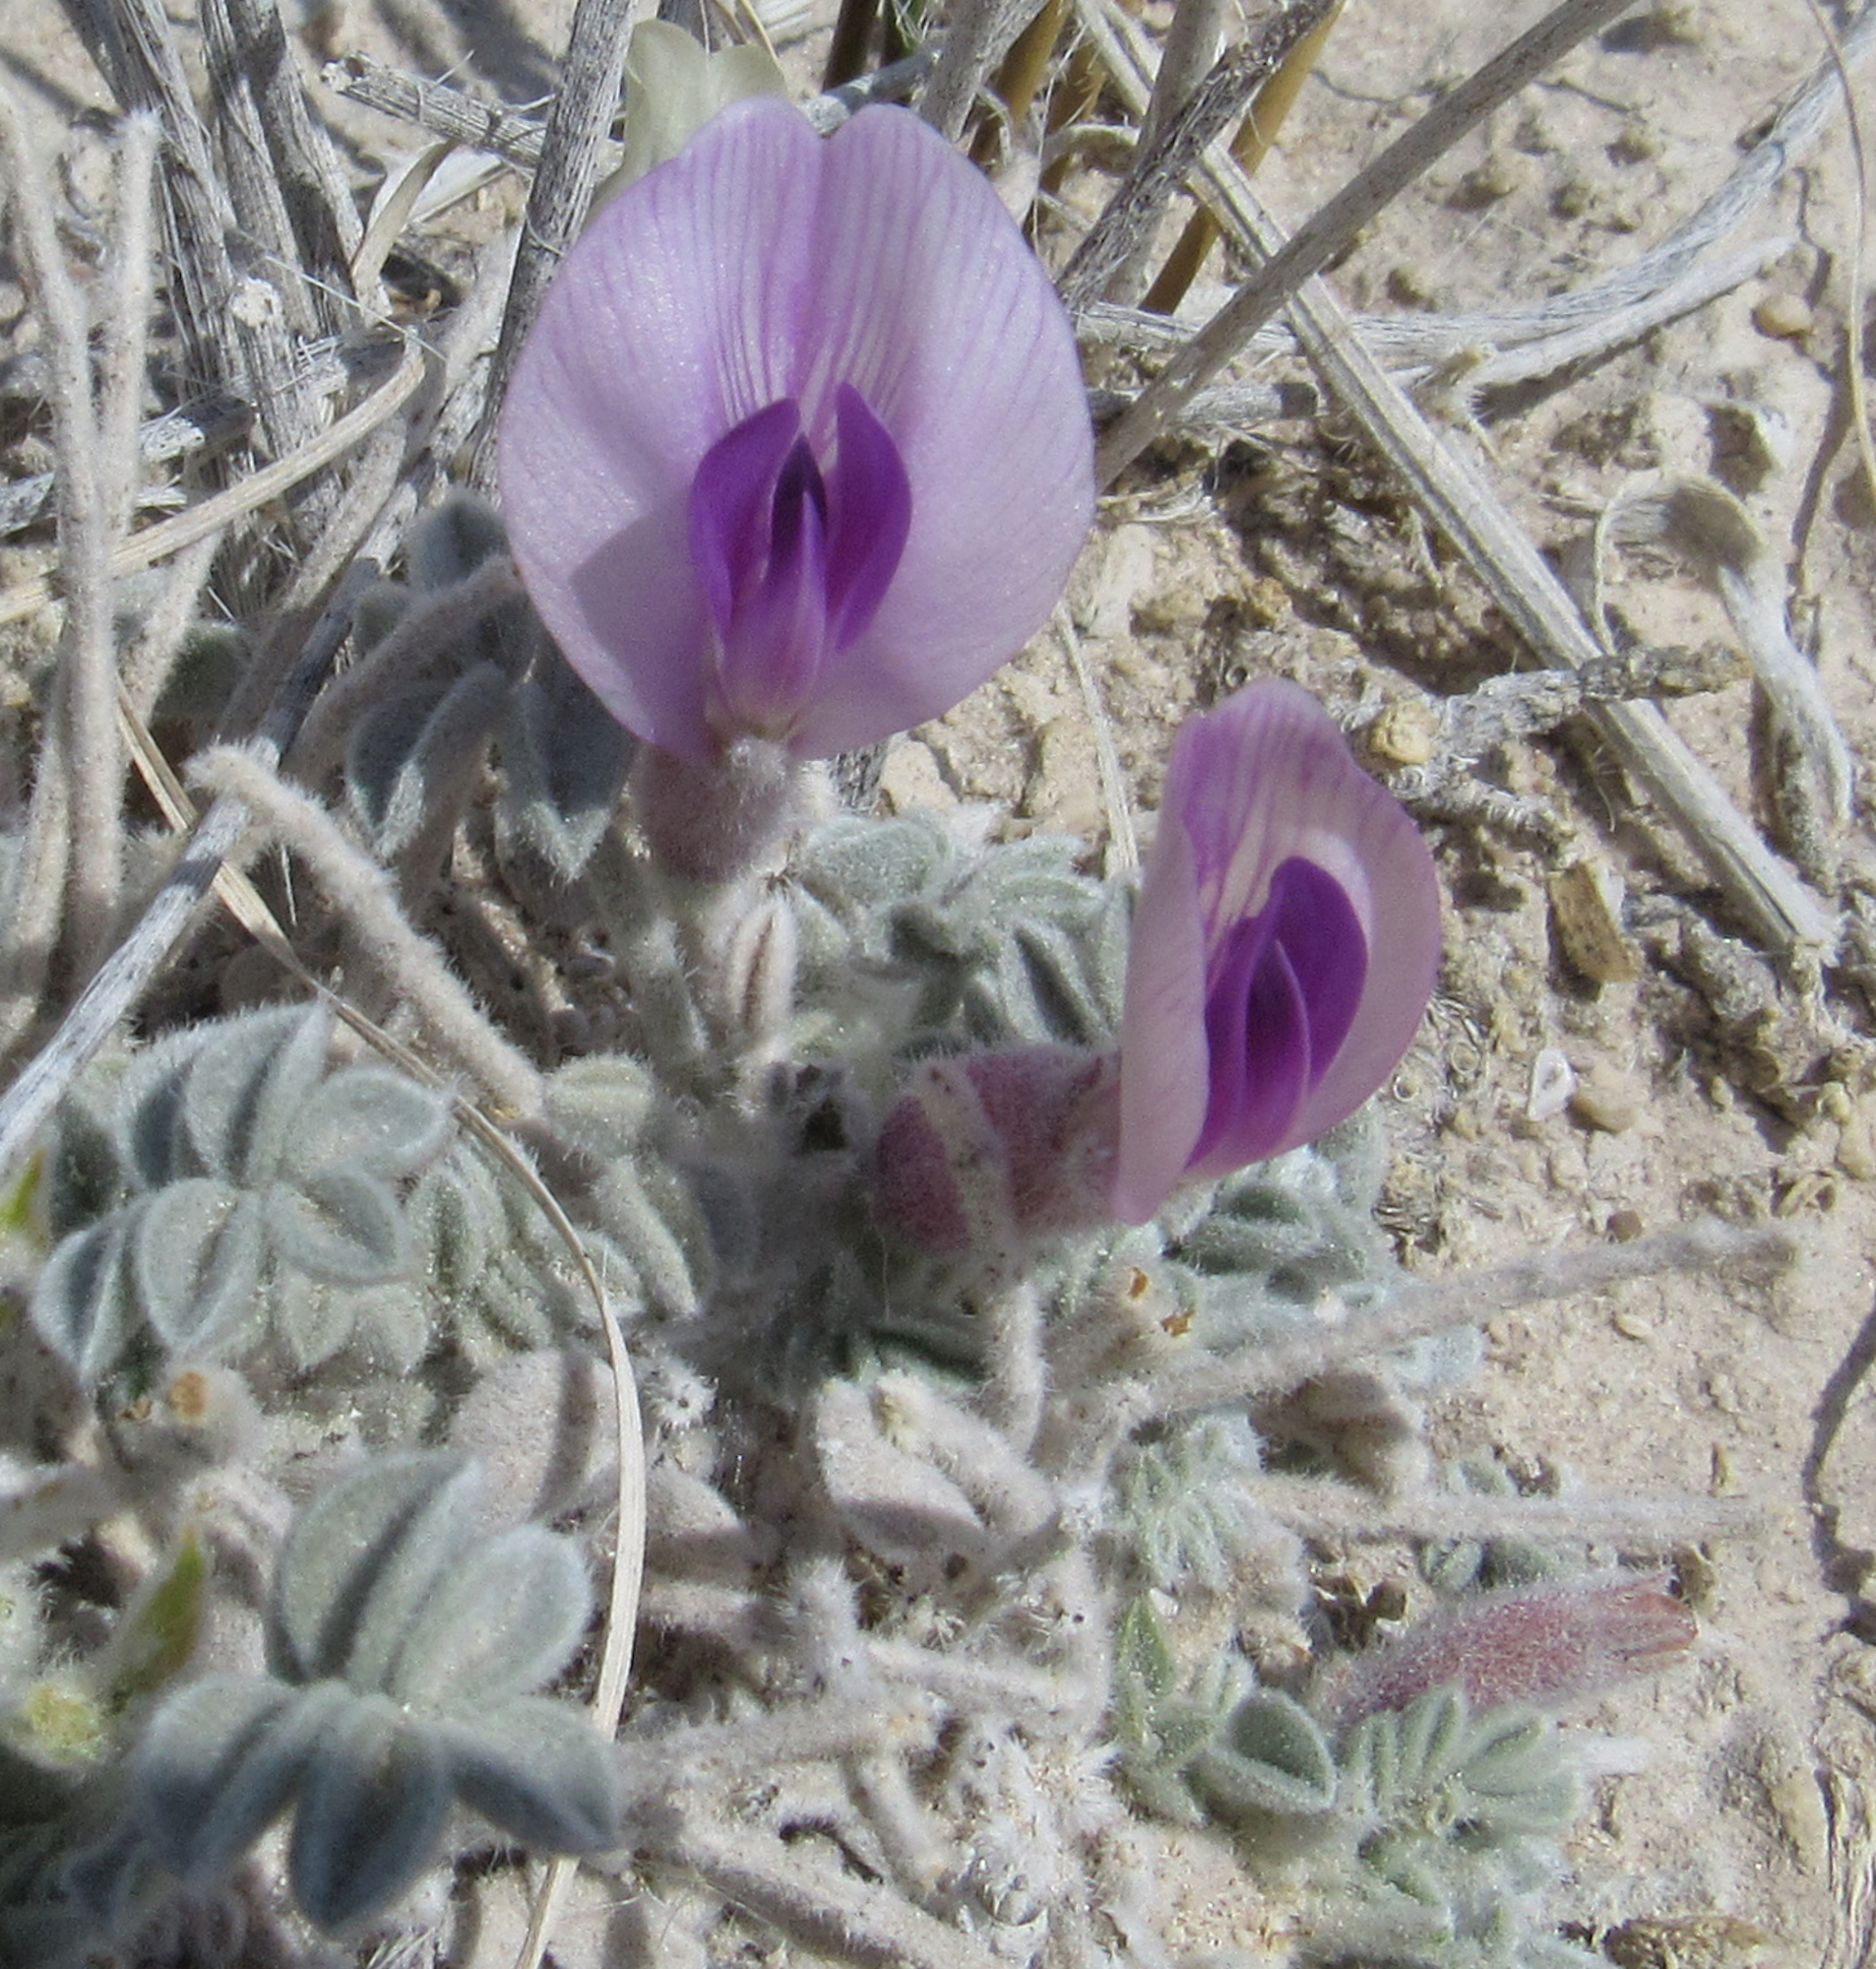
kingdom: Plantae
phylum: Tracheophyta
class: Magnoliopsida
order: Fabales
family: Fabaceae
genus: Astragalus
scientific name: Astragalus phoenix
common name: Ash meadows milk-vetch
